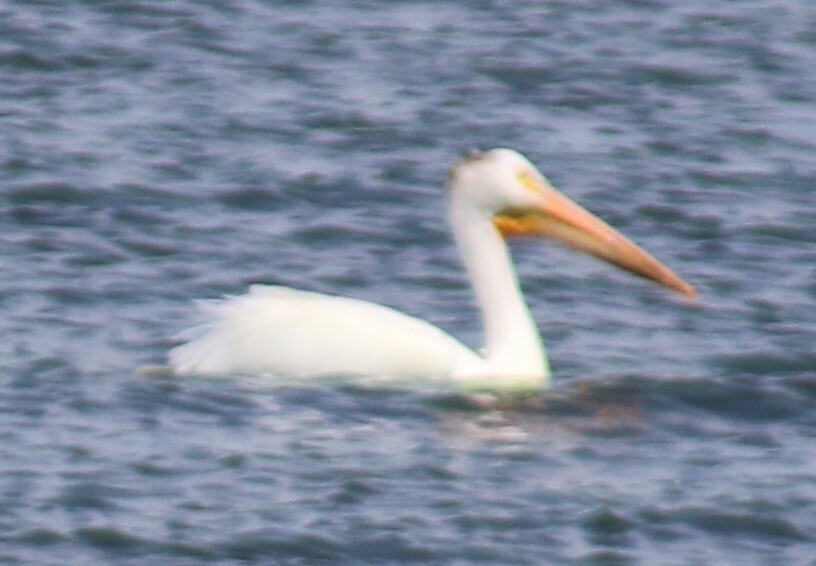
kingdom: Animalia
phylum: Chordata
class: Aves
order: Pelecaniformes
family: Pelecanidae
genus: Pelecanus
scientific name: Pelecanus erythrorhynchos
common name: American white pelican
